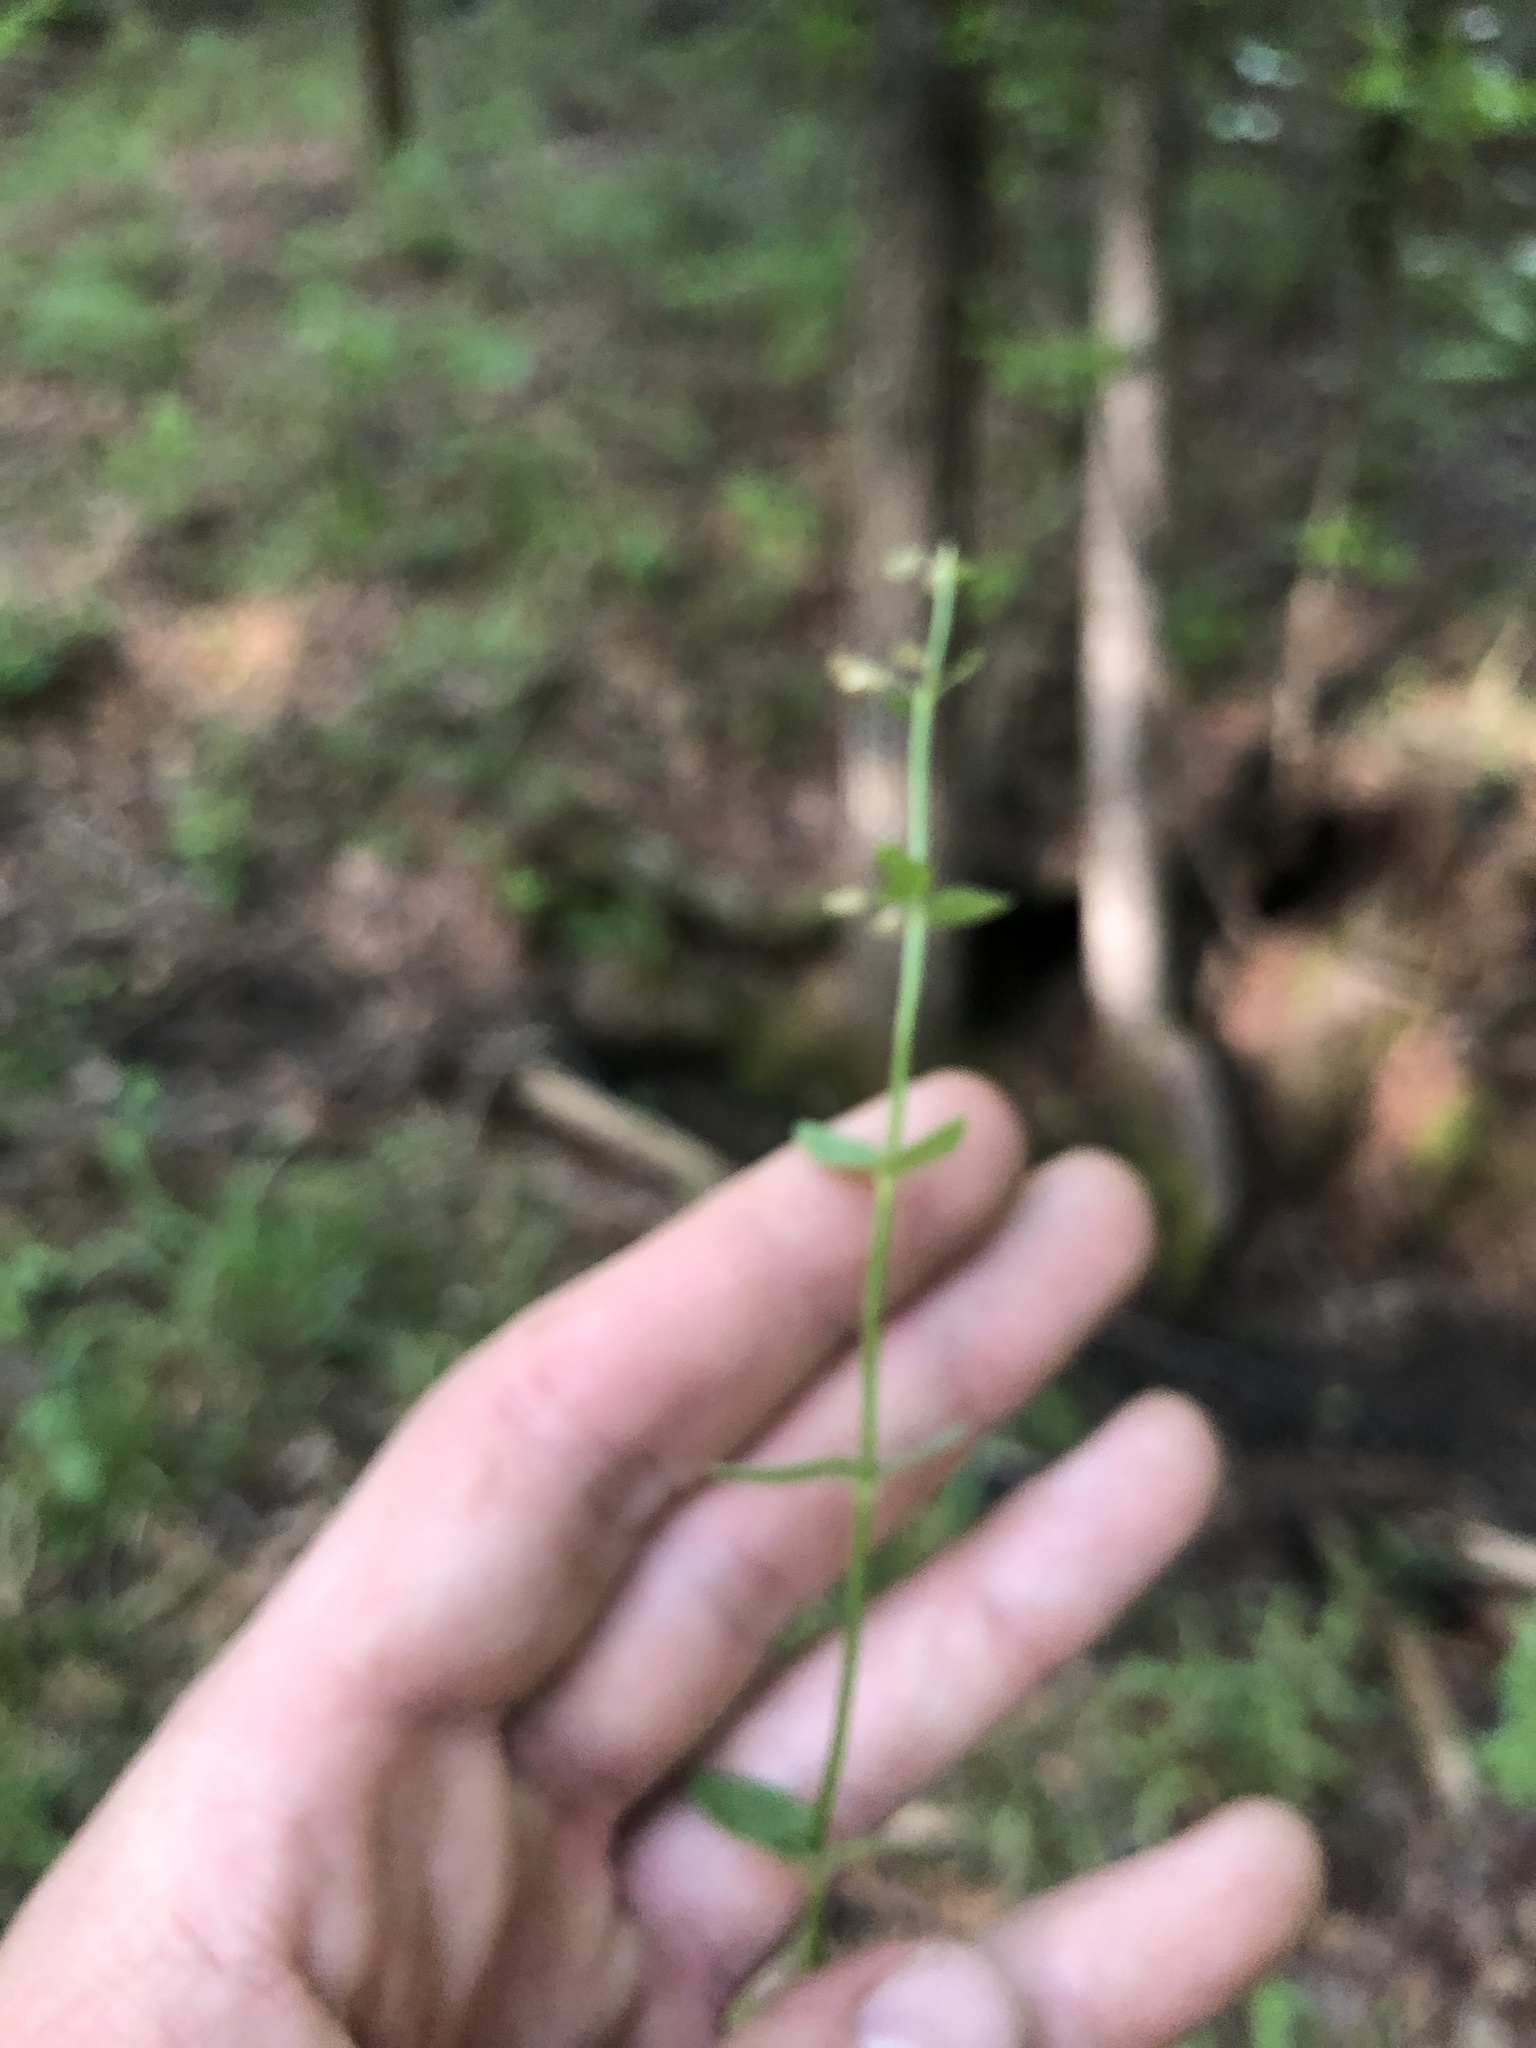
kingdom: Plantae
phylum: Tracheophyta
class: Magnoliopsida
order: Lamiales
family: Lamiaceae
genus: Scutellaria
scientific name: Scutellaria parvula
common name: Little scullcap
